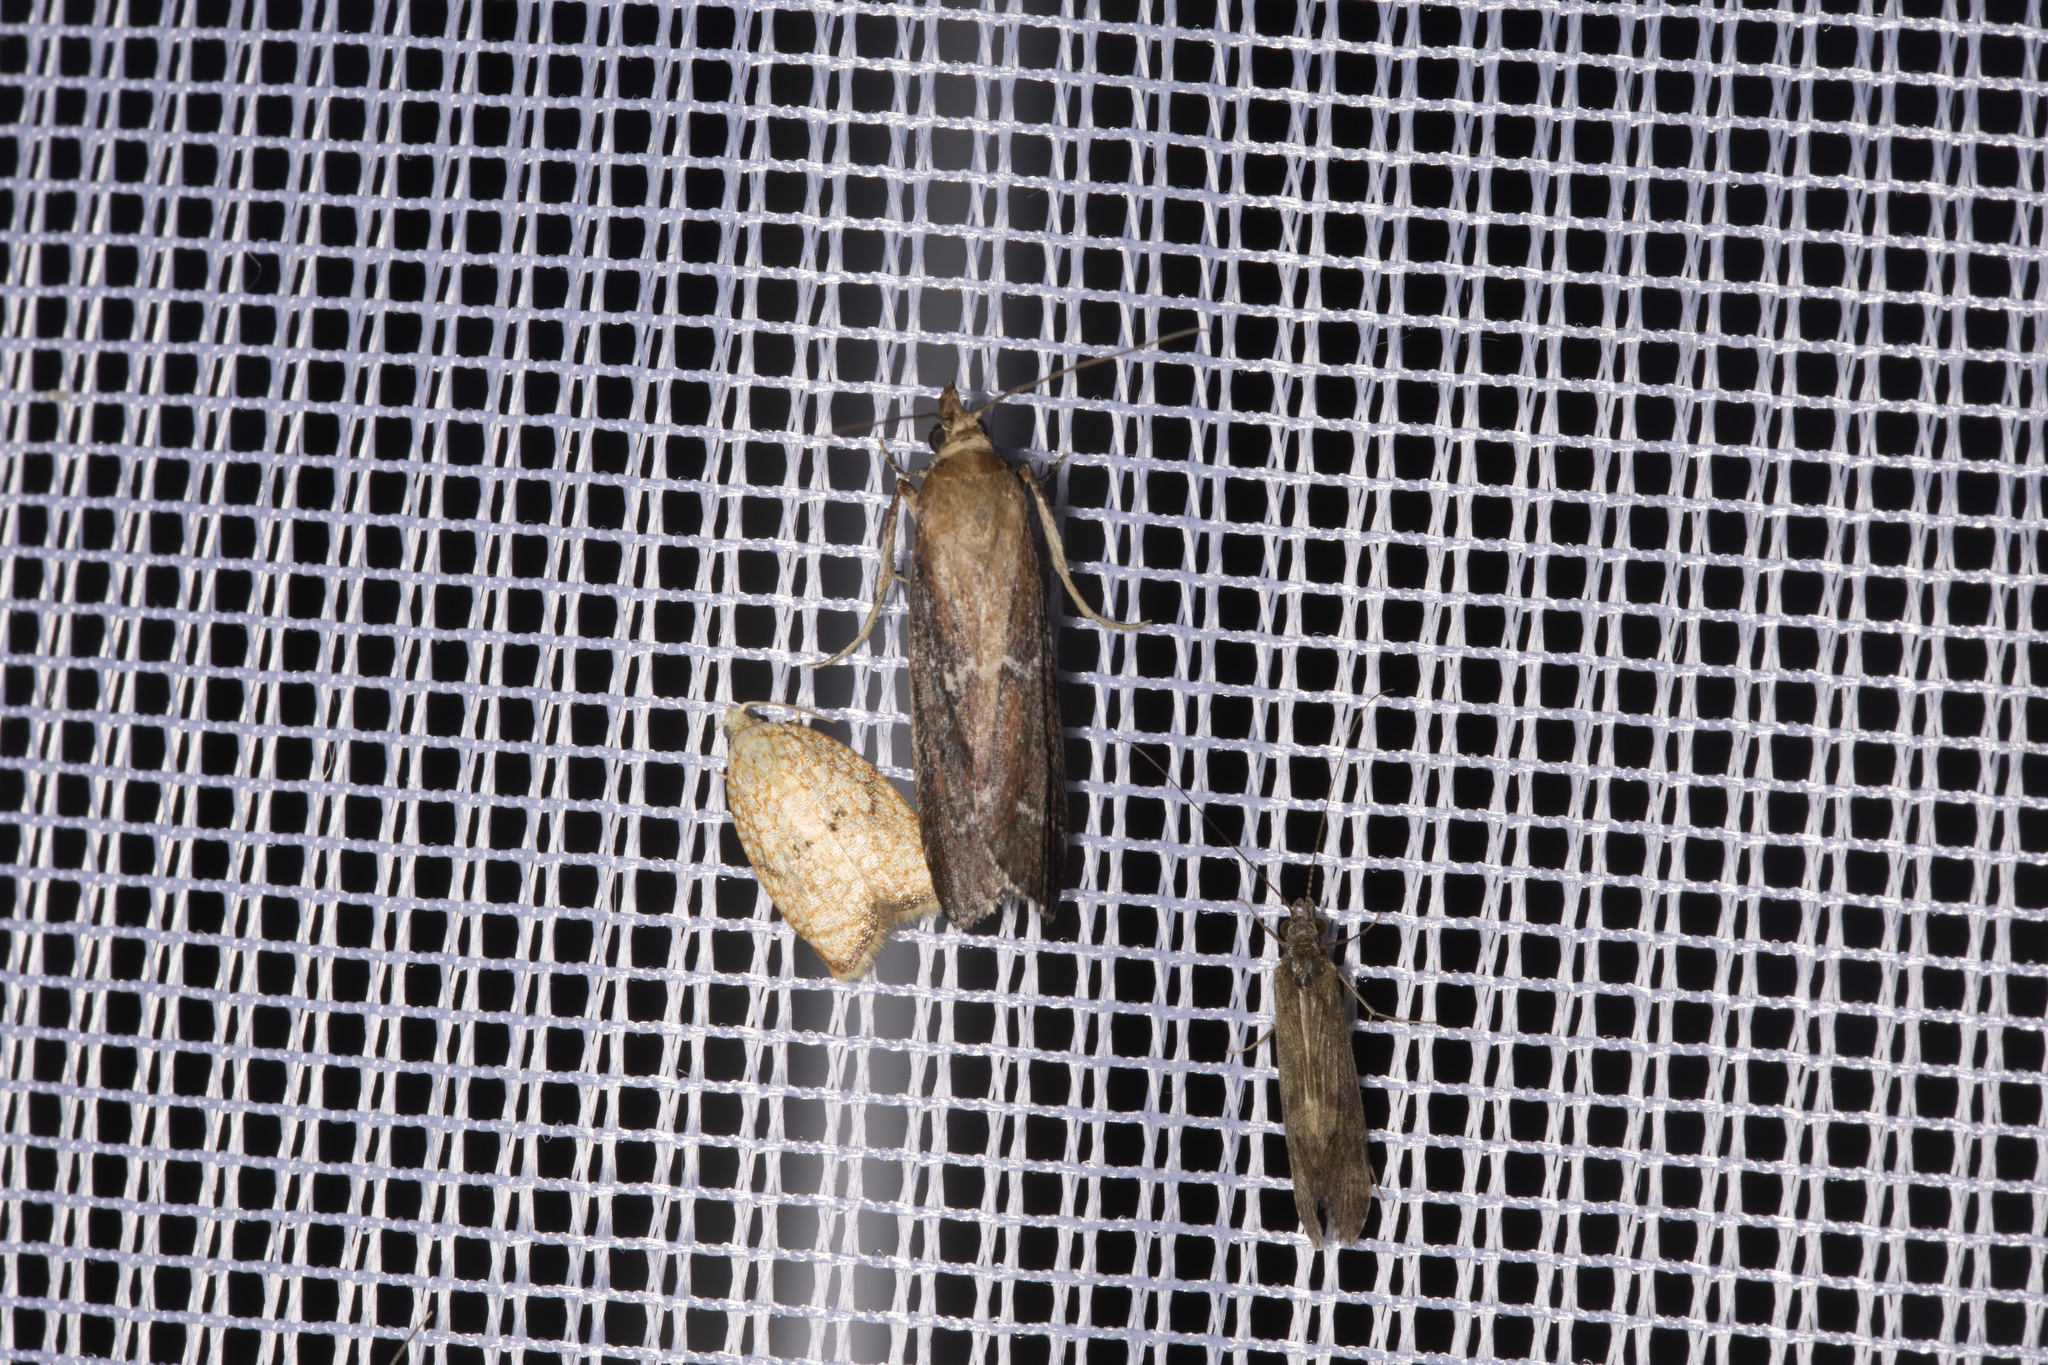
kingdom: Animalia
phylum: Arthropoda
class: Insecta
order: Lepidoptera
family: Tortricidae
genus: Acleris
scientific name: Acleris forsskaleana
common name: Maple button
